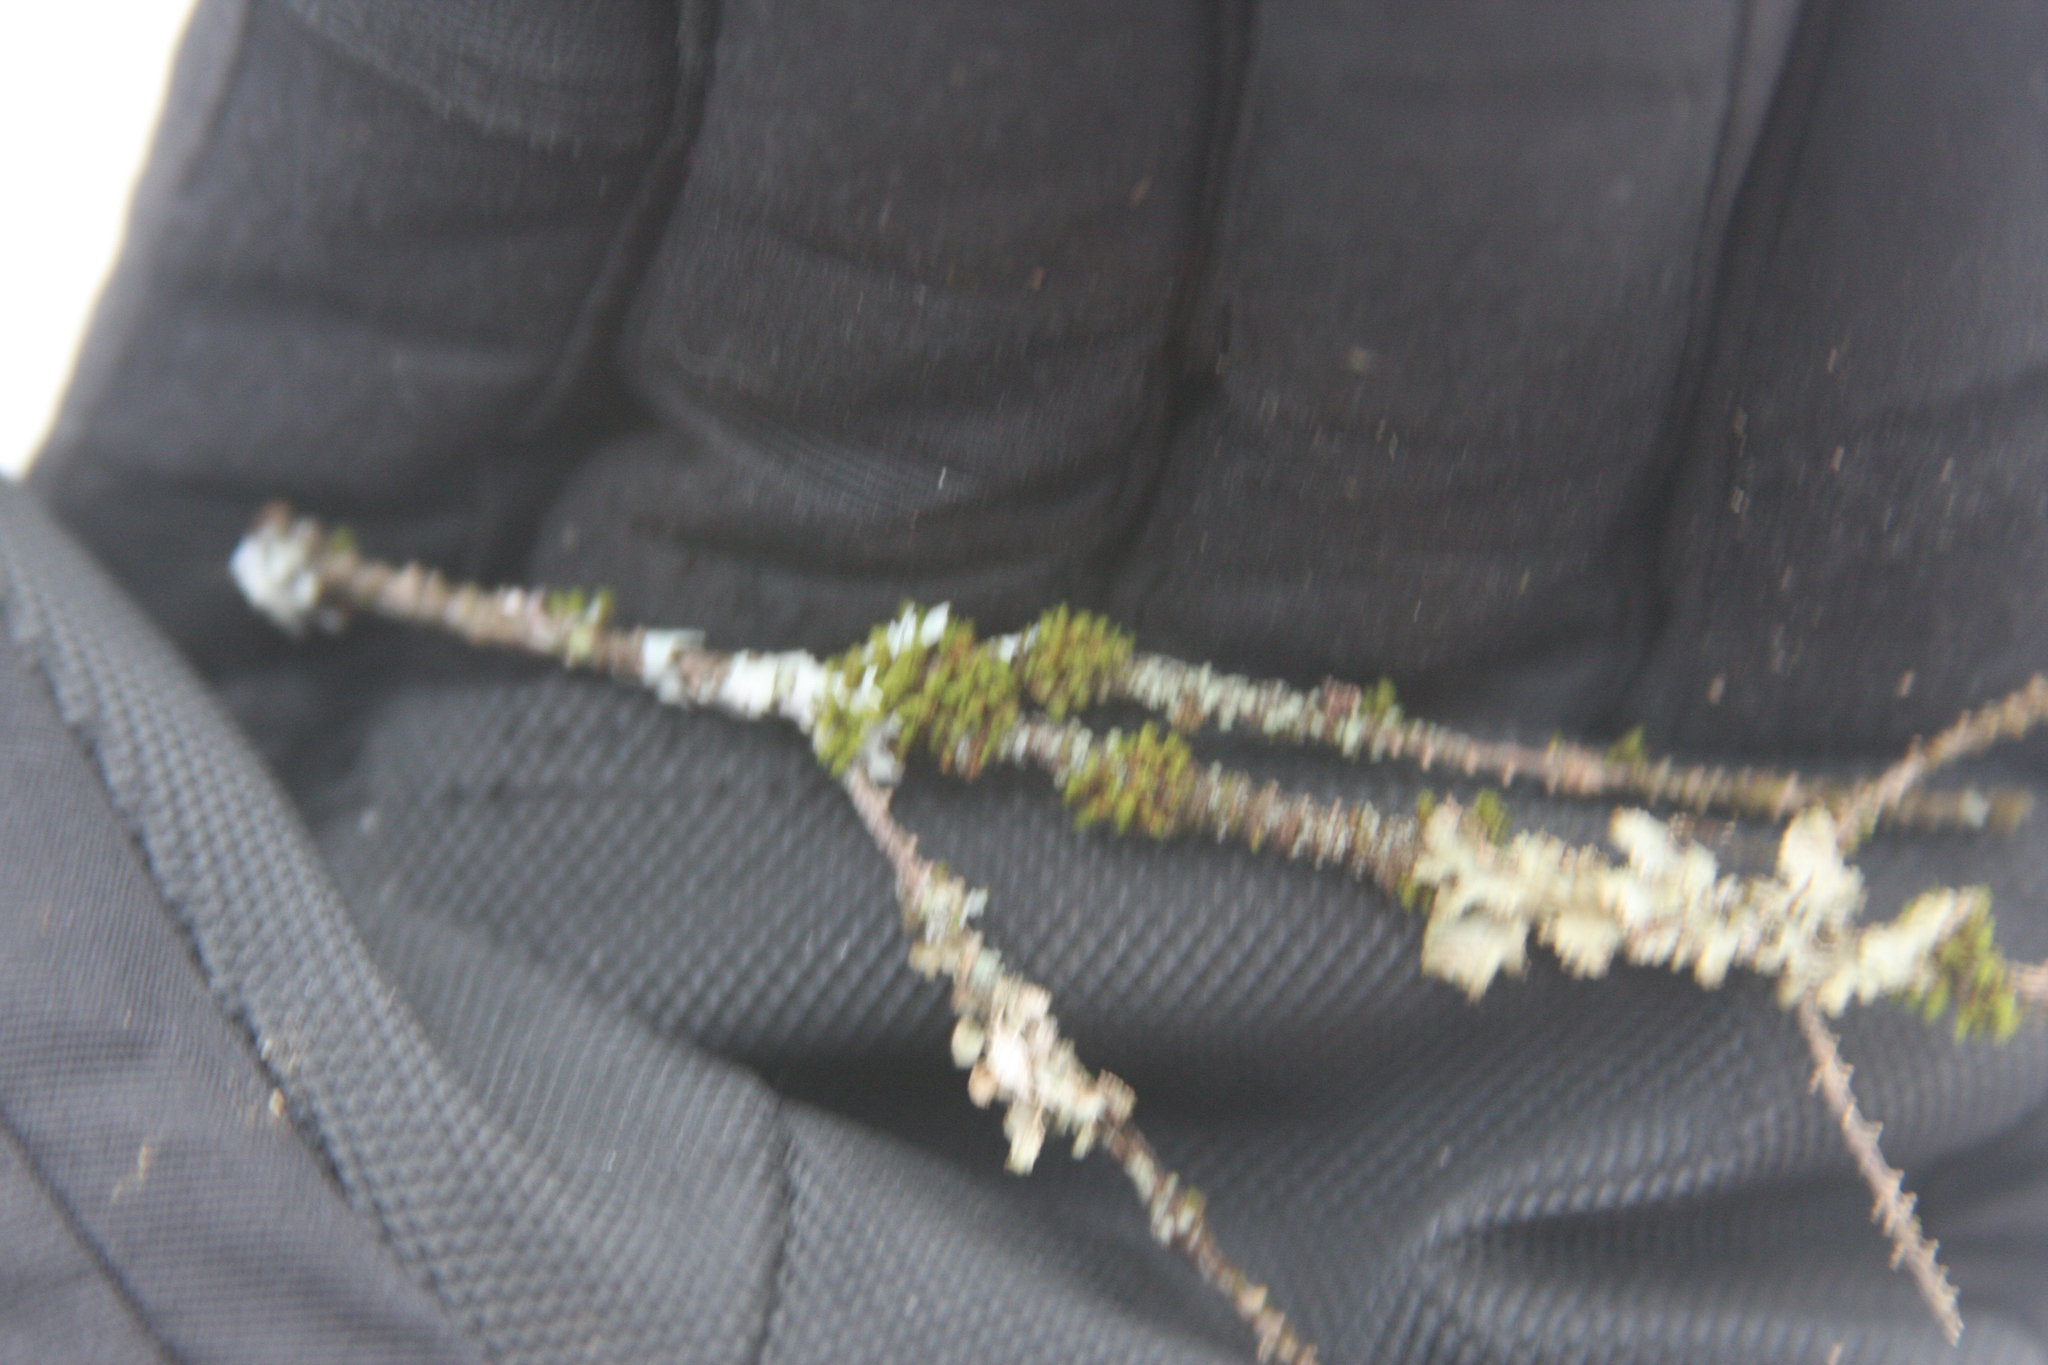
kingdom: Plantae
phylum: Bryophyta
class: Bryopsida
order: Orthotrichales
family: Orthotrichaceae
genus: Ulota
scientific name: Ulota crispa
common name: Crisped pincushion moss
